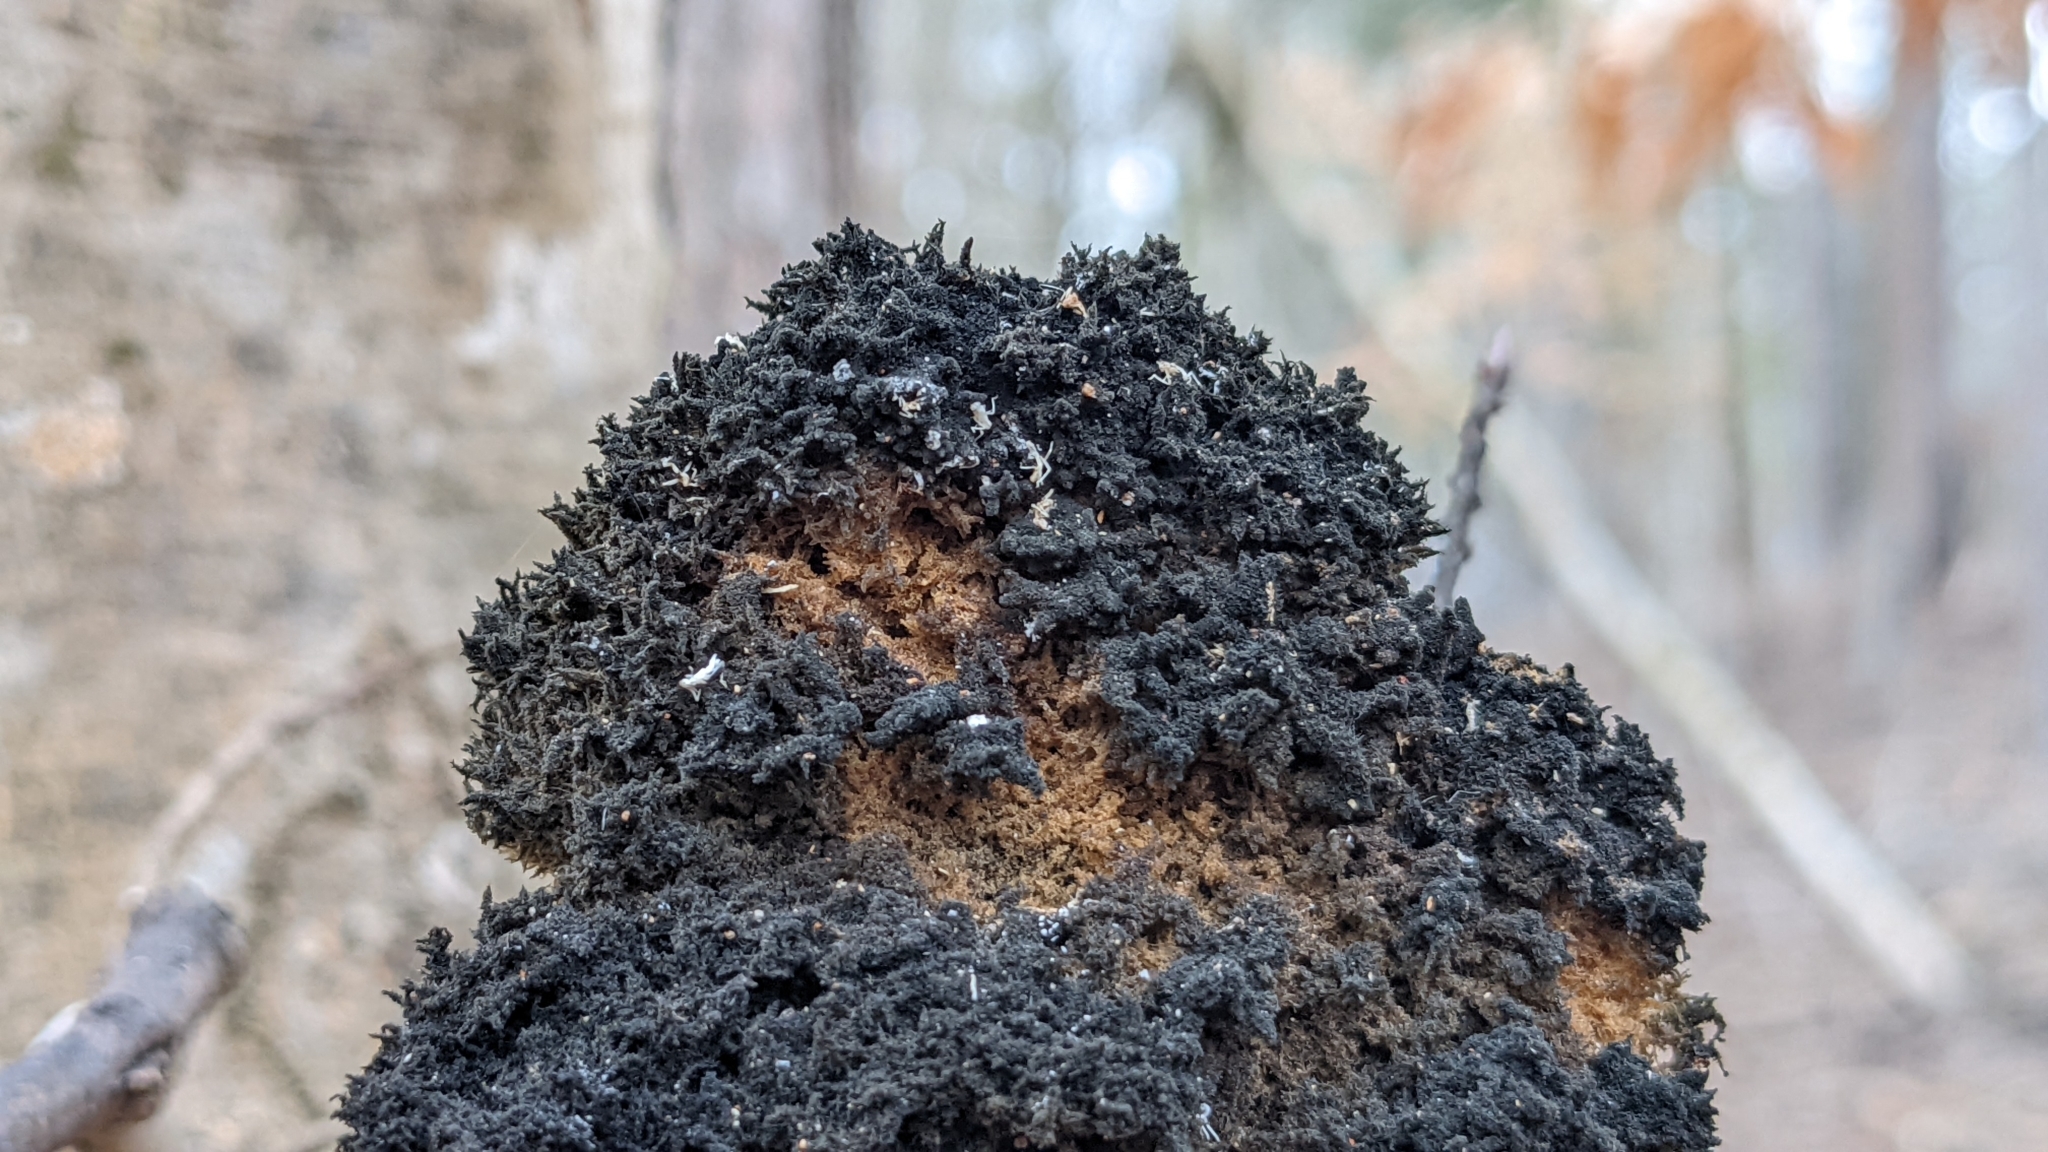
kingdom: Fungi
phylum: Ascomycota
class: Dothideomycetes
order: Capnodiales
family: Capnodiaceae
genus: Scorias
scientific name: Scorias spongiosa
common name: Black sooty mold
